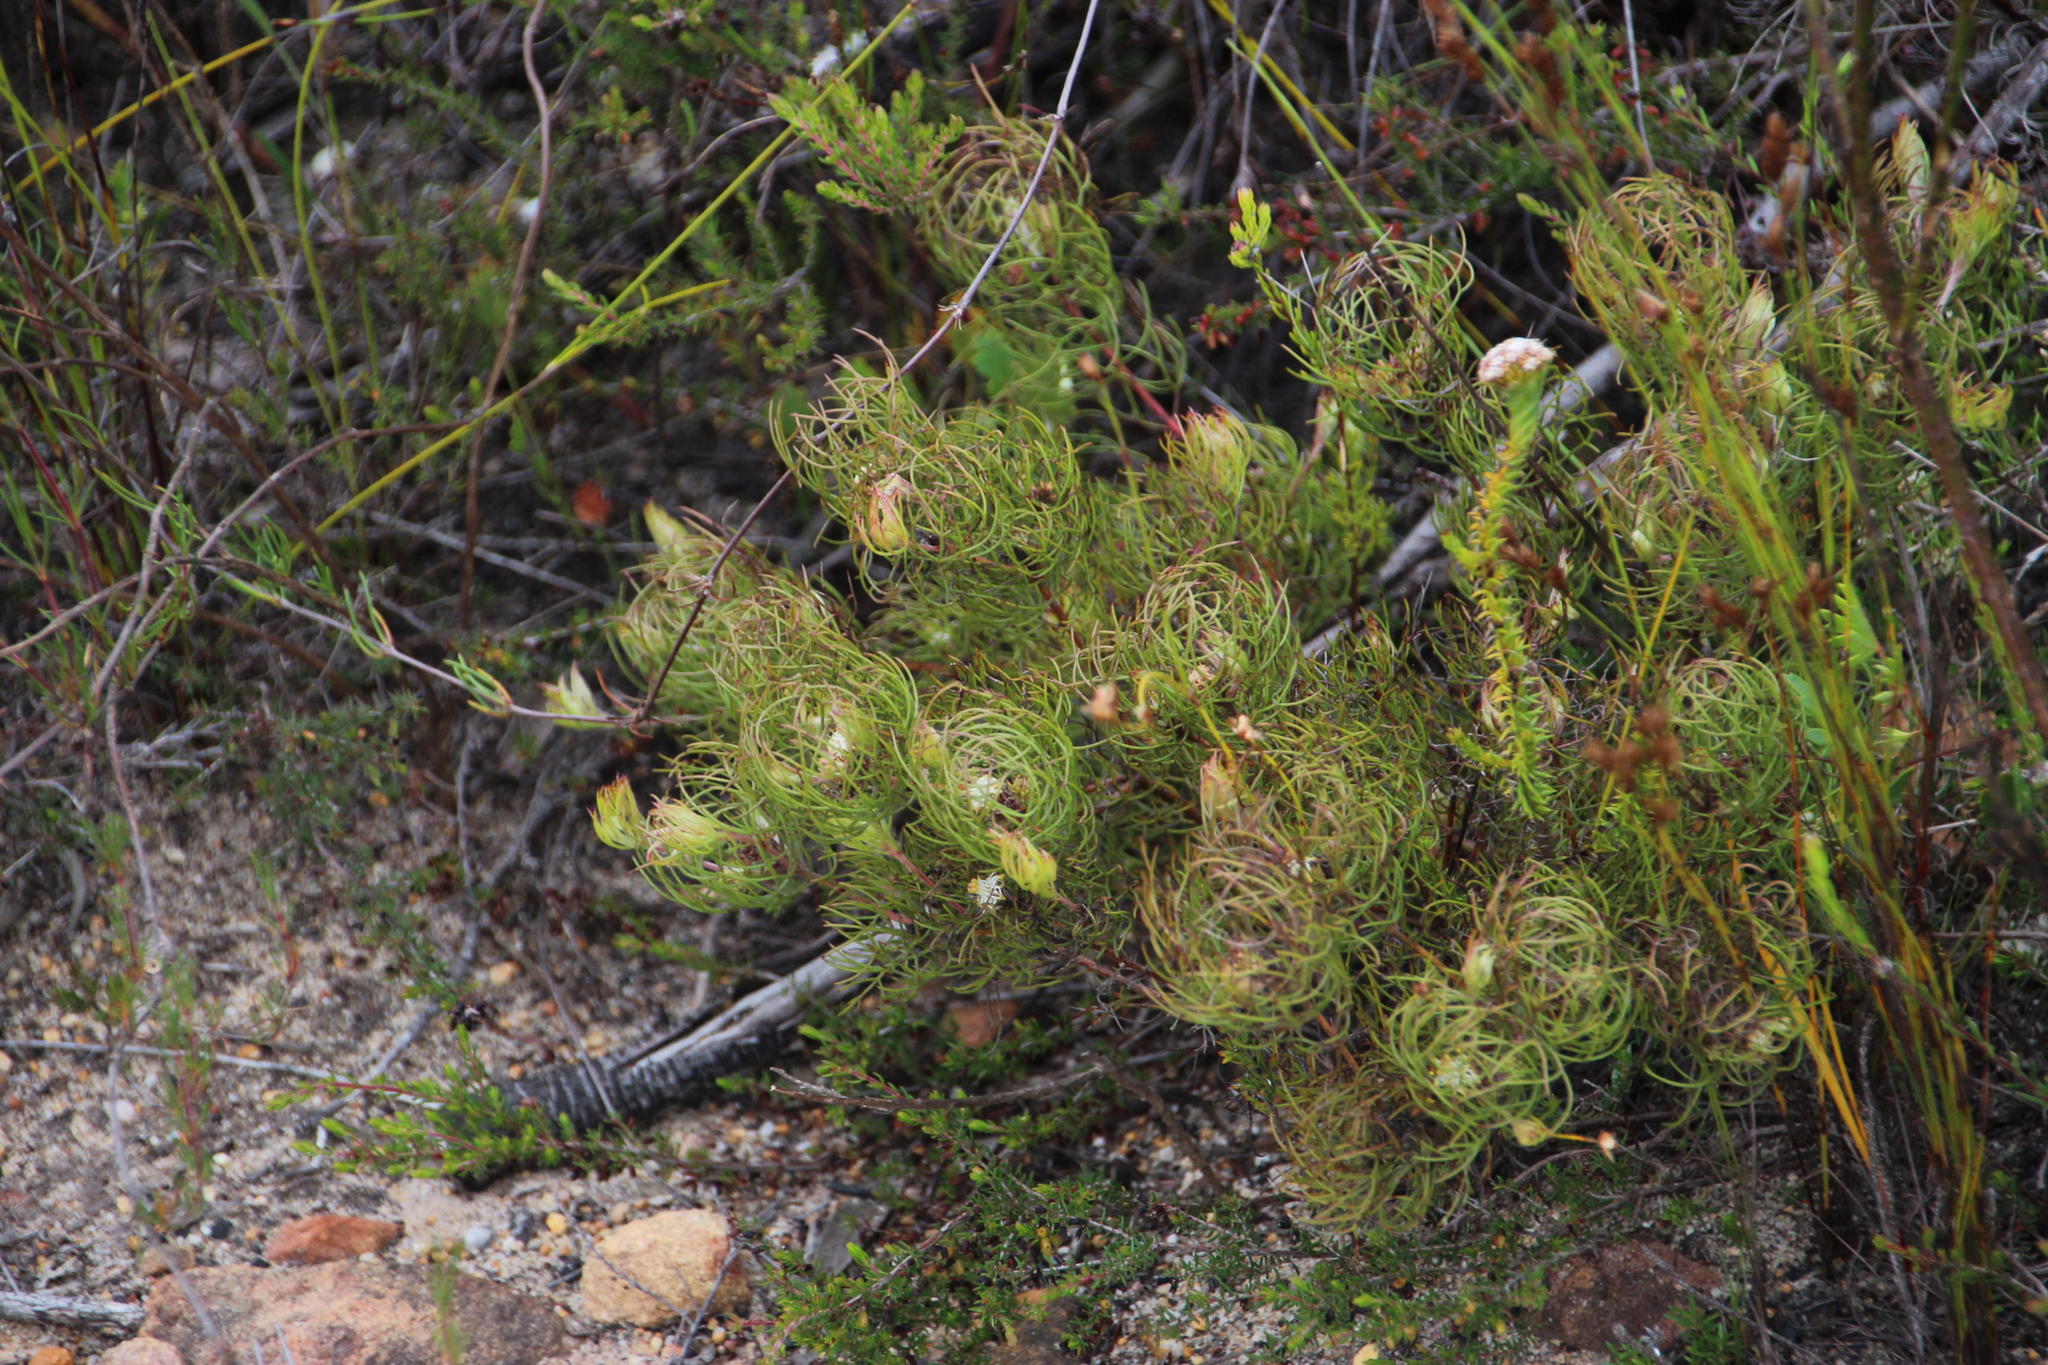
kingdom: Plantae
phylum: Tracheophyta
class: Magnoliopsida
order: Proteales
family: Proteaceae
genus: Serruria
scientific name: Serruria inconspicua
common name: Cryptic spiderhead
